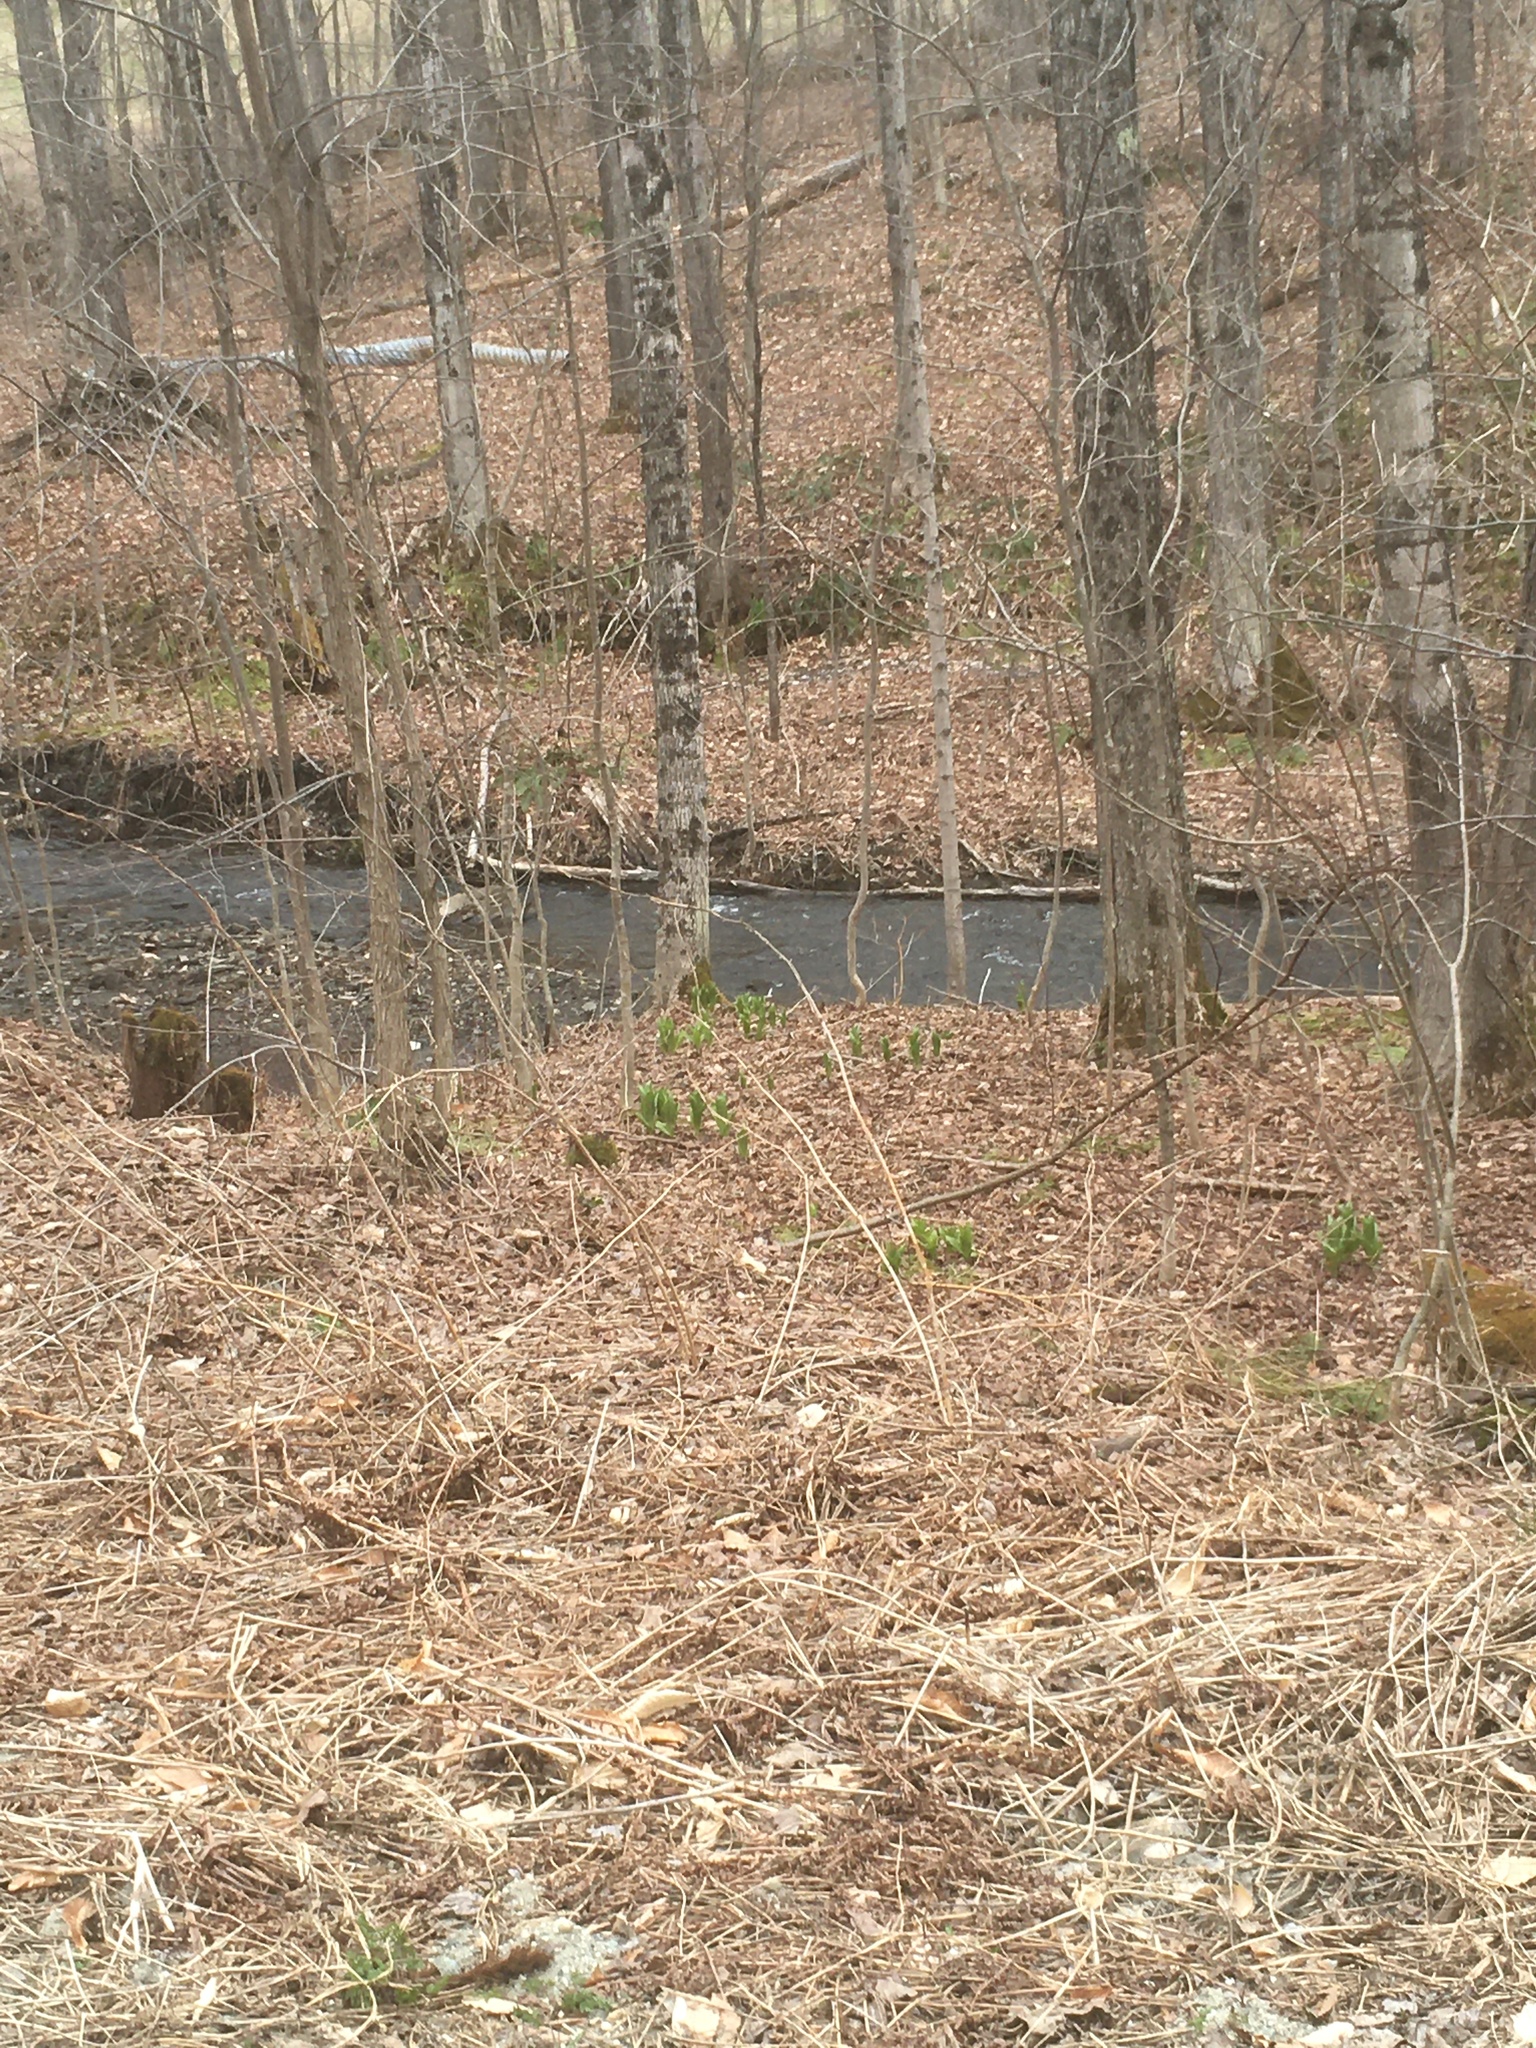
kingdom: Plantae
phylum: Tracheophyta
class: Liliopsida
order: Liliales
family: Melanthiaceae
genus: Veratrum
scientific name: Veratrum viride
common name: American false hellebore
